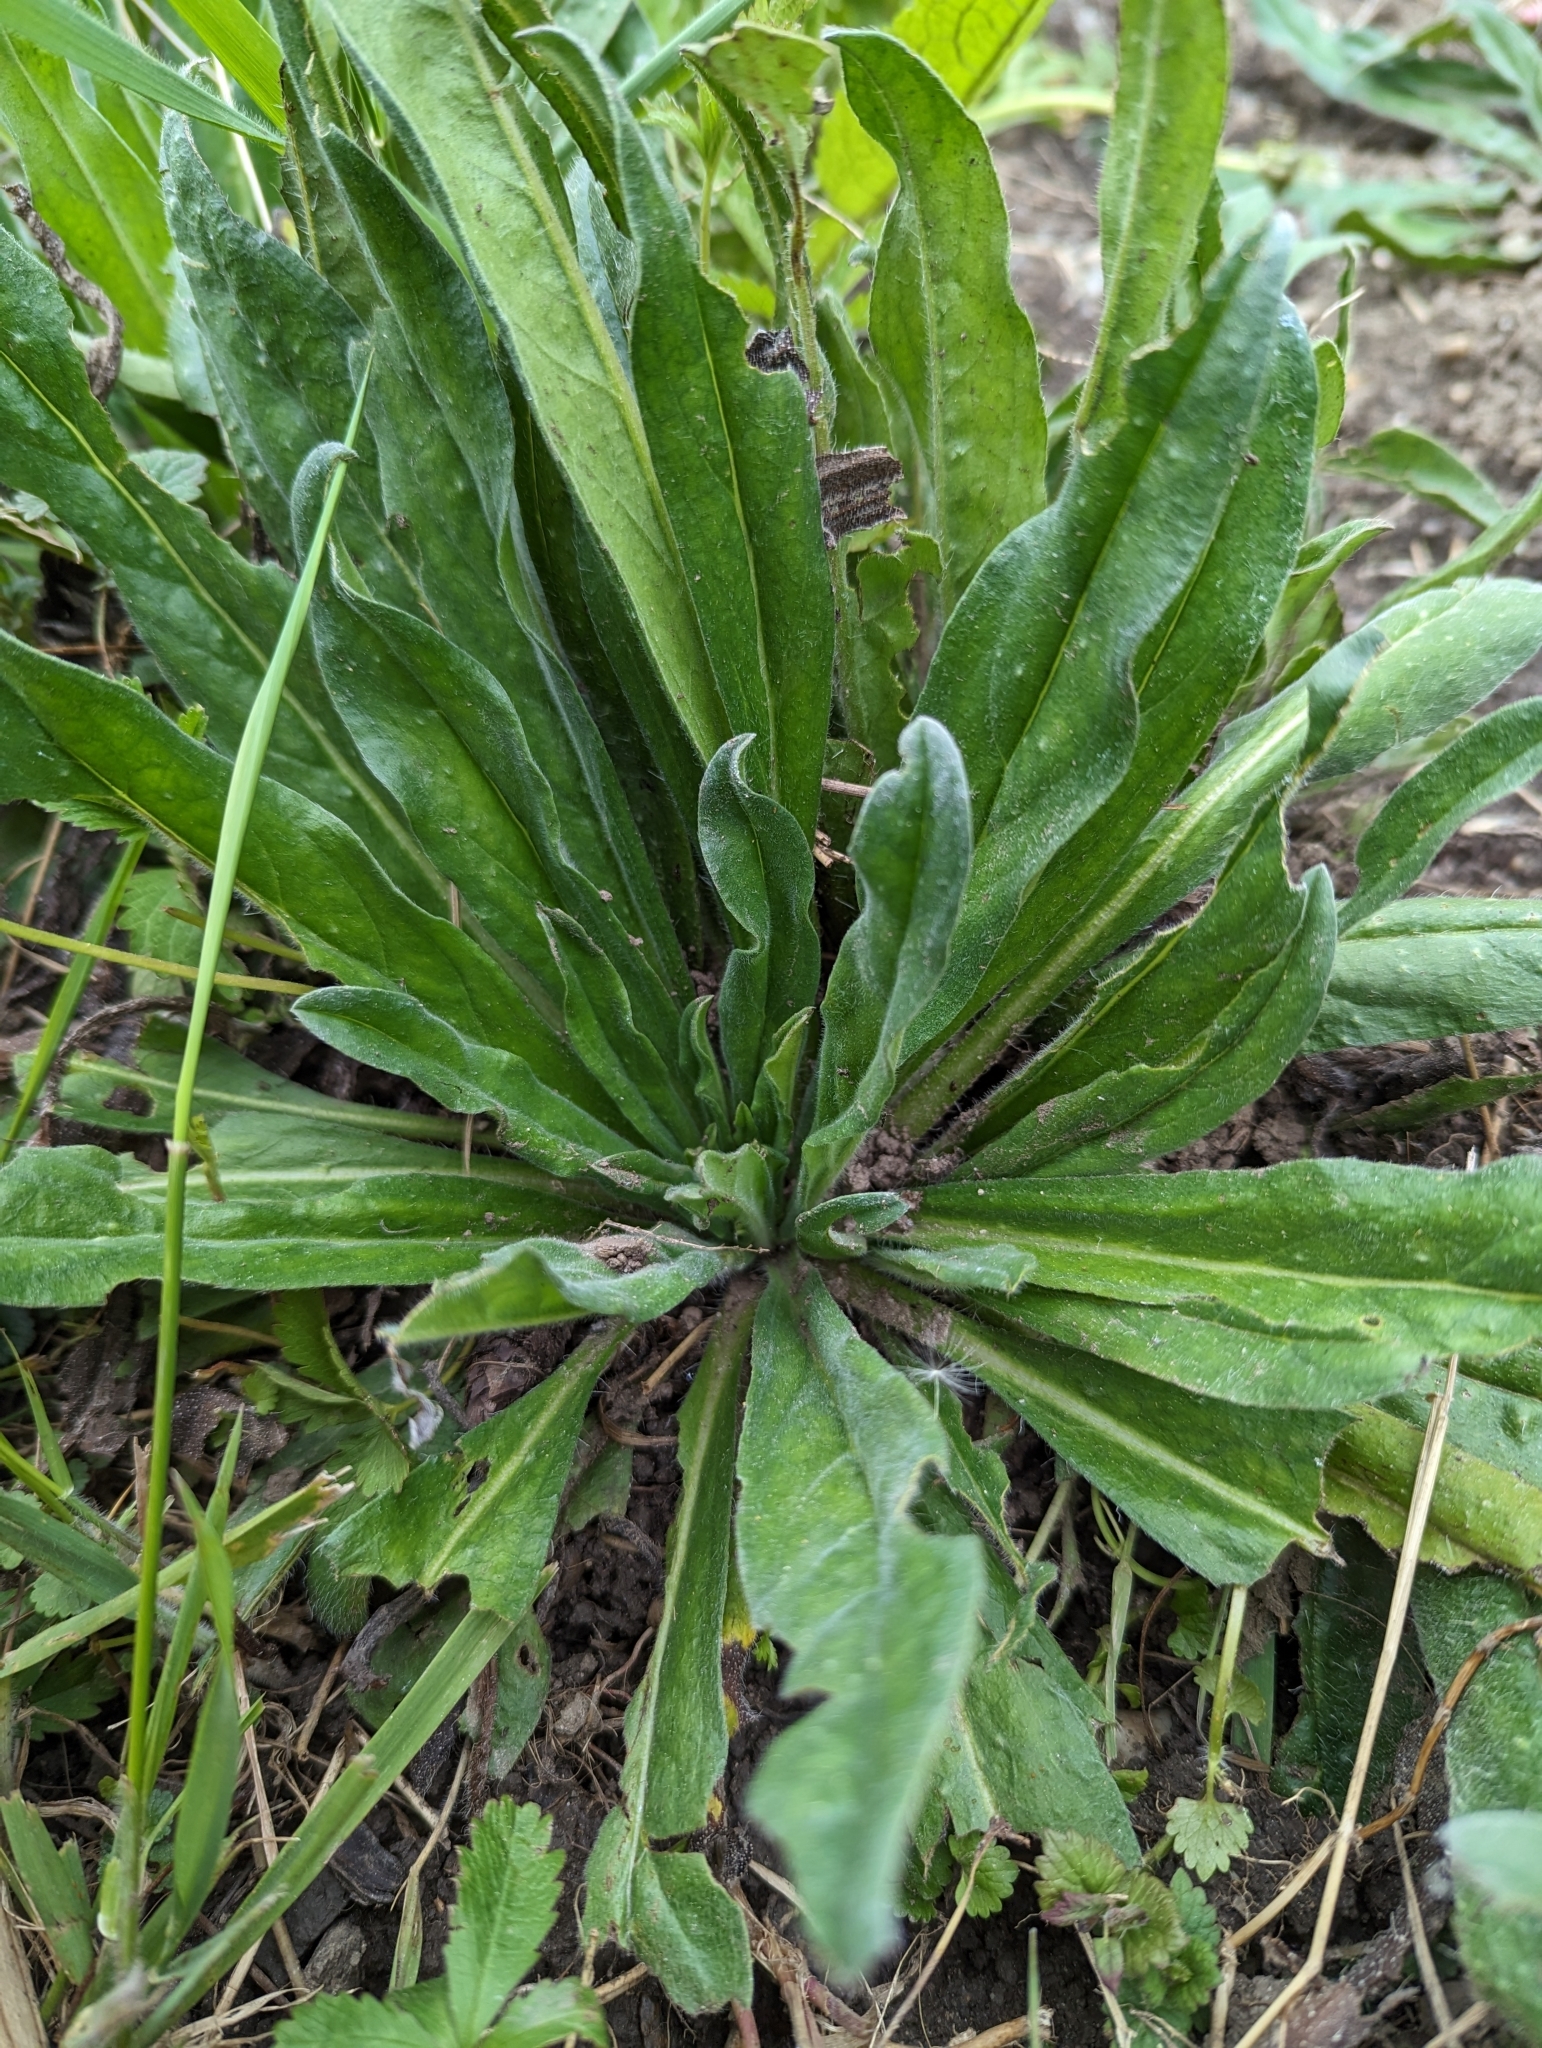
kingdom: Plantae
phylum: Tracheophyta
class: Magnoliopsida
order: Boraginales
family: Boraginaceae
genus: Echium
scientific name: Echium vulgare
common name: Common viper's bugloss
